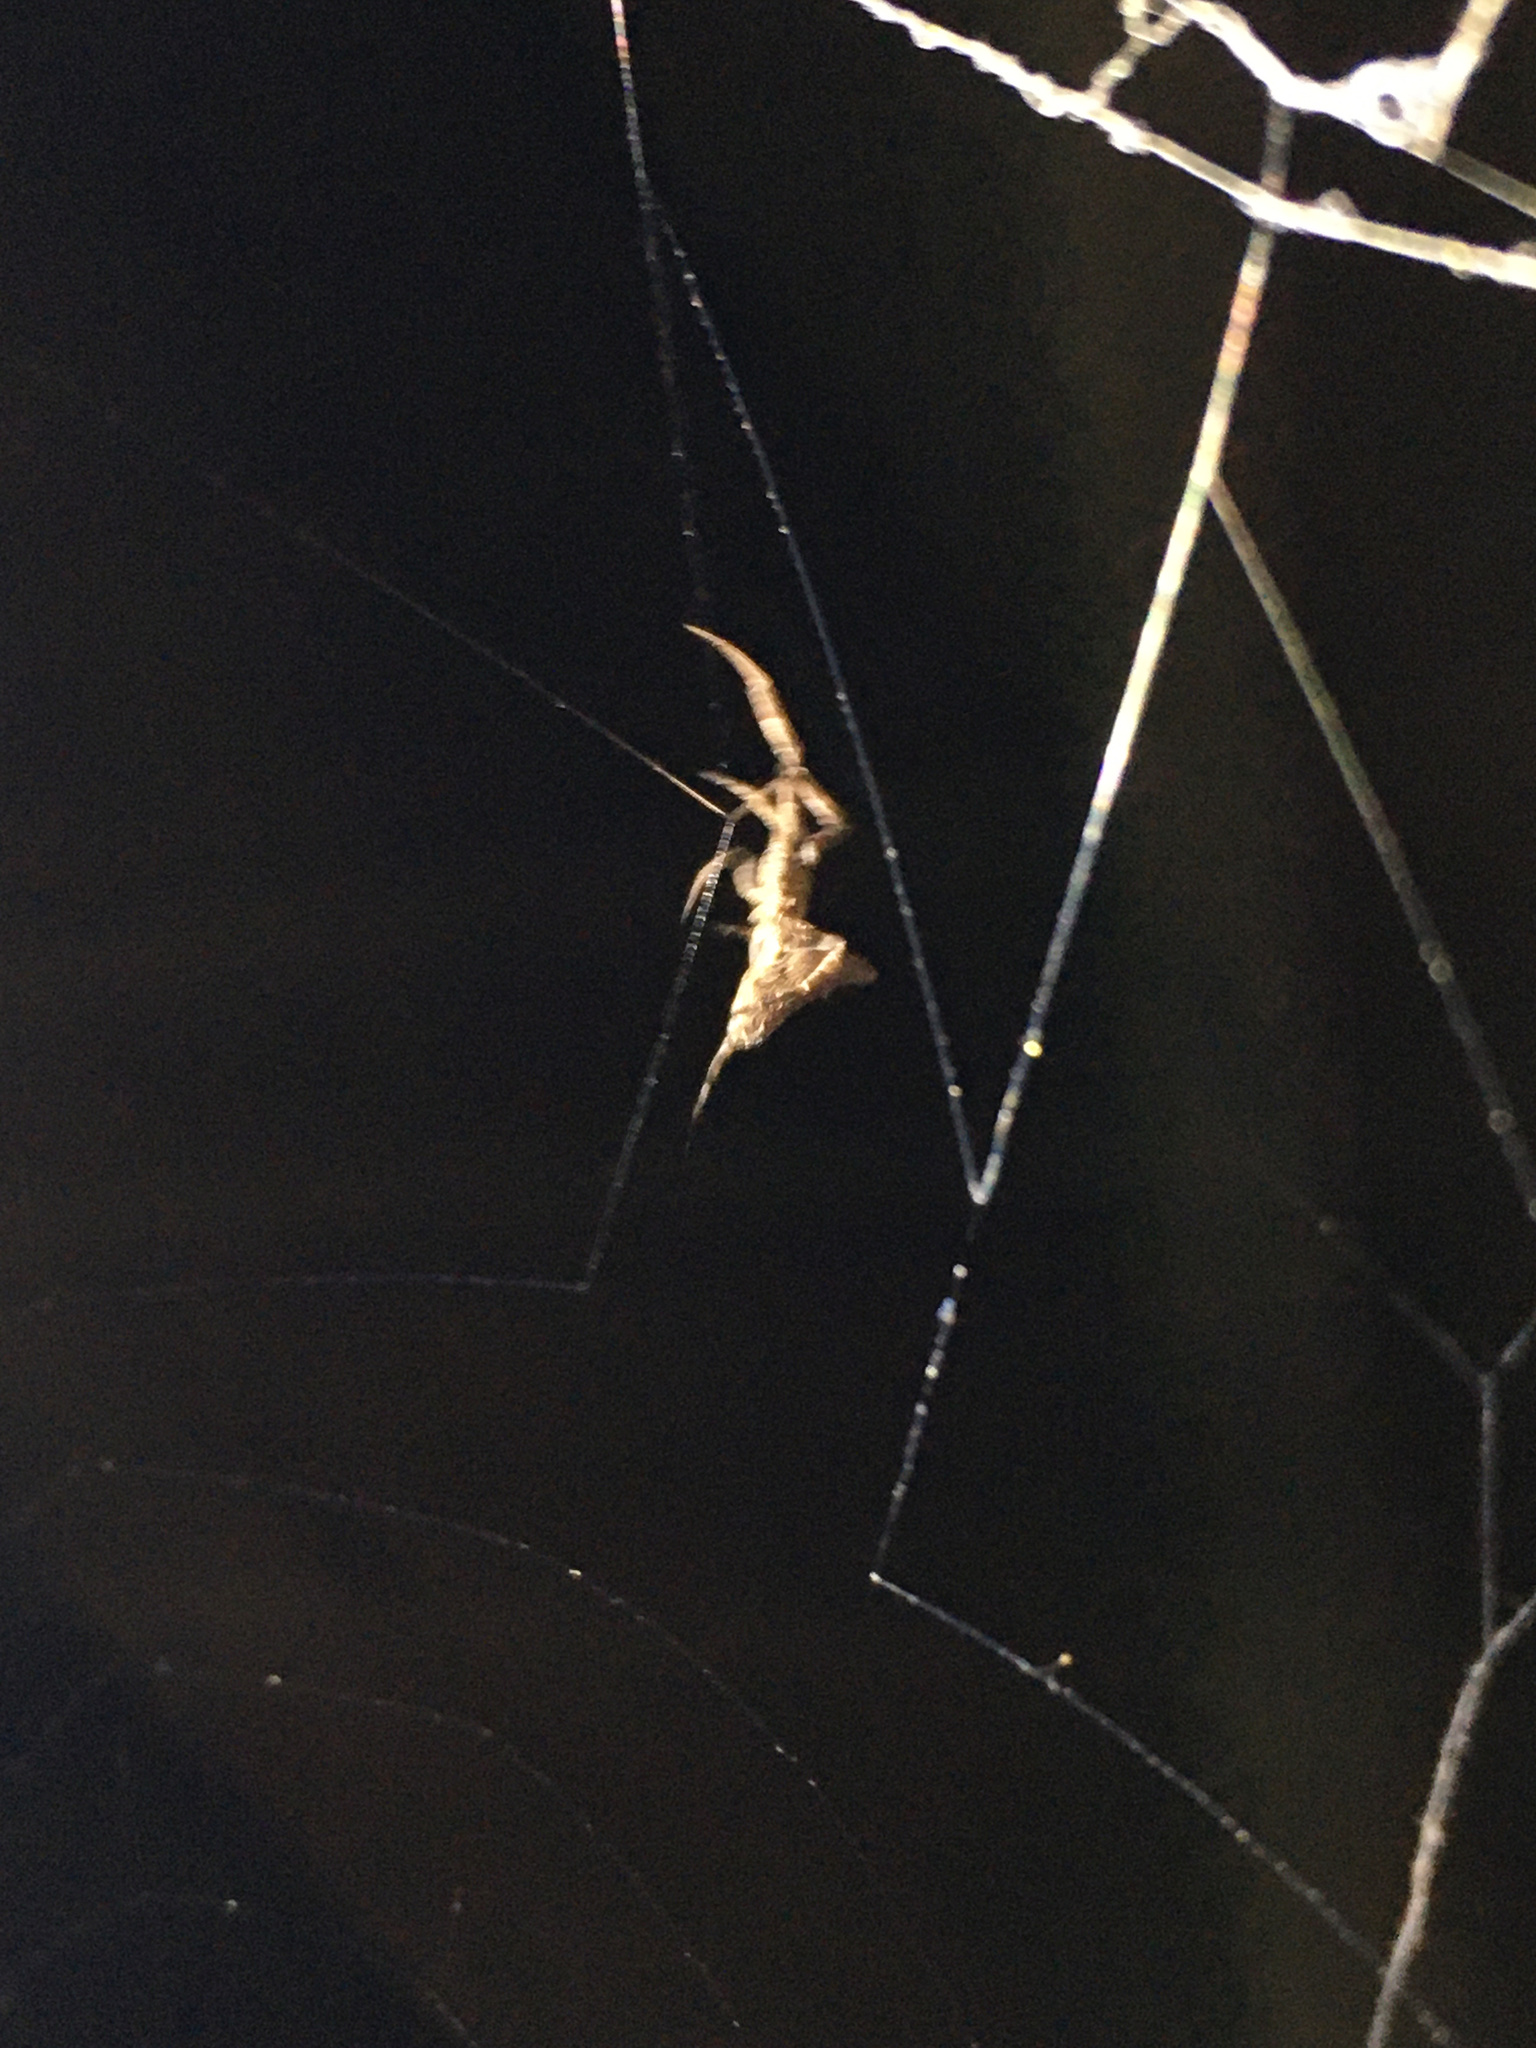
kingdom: Animalia
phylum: Arthropoda
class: Arachnida
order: Araneae
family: Uloboridae
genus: Philoponella
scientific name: Philoponella congregabilis
